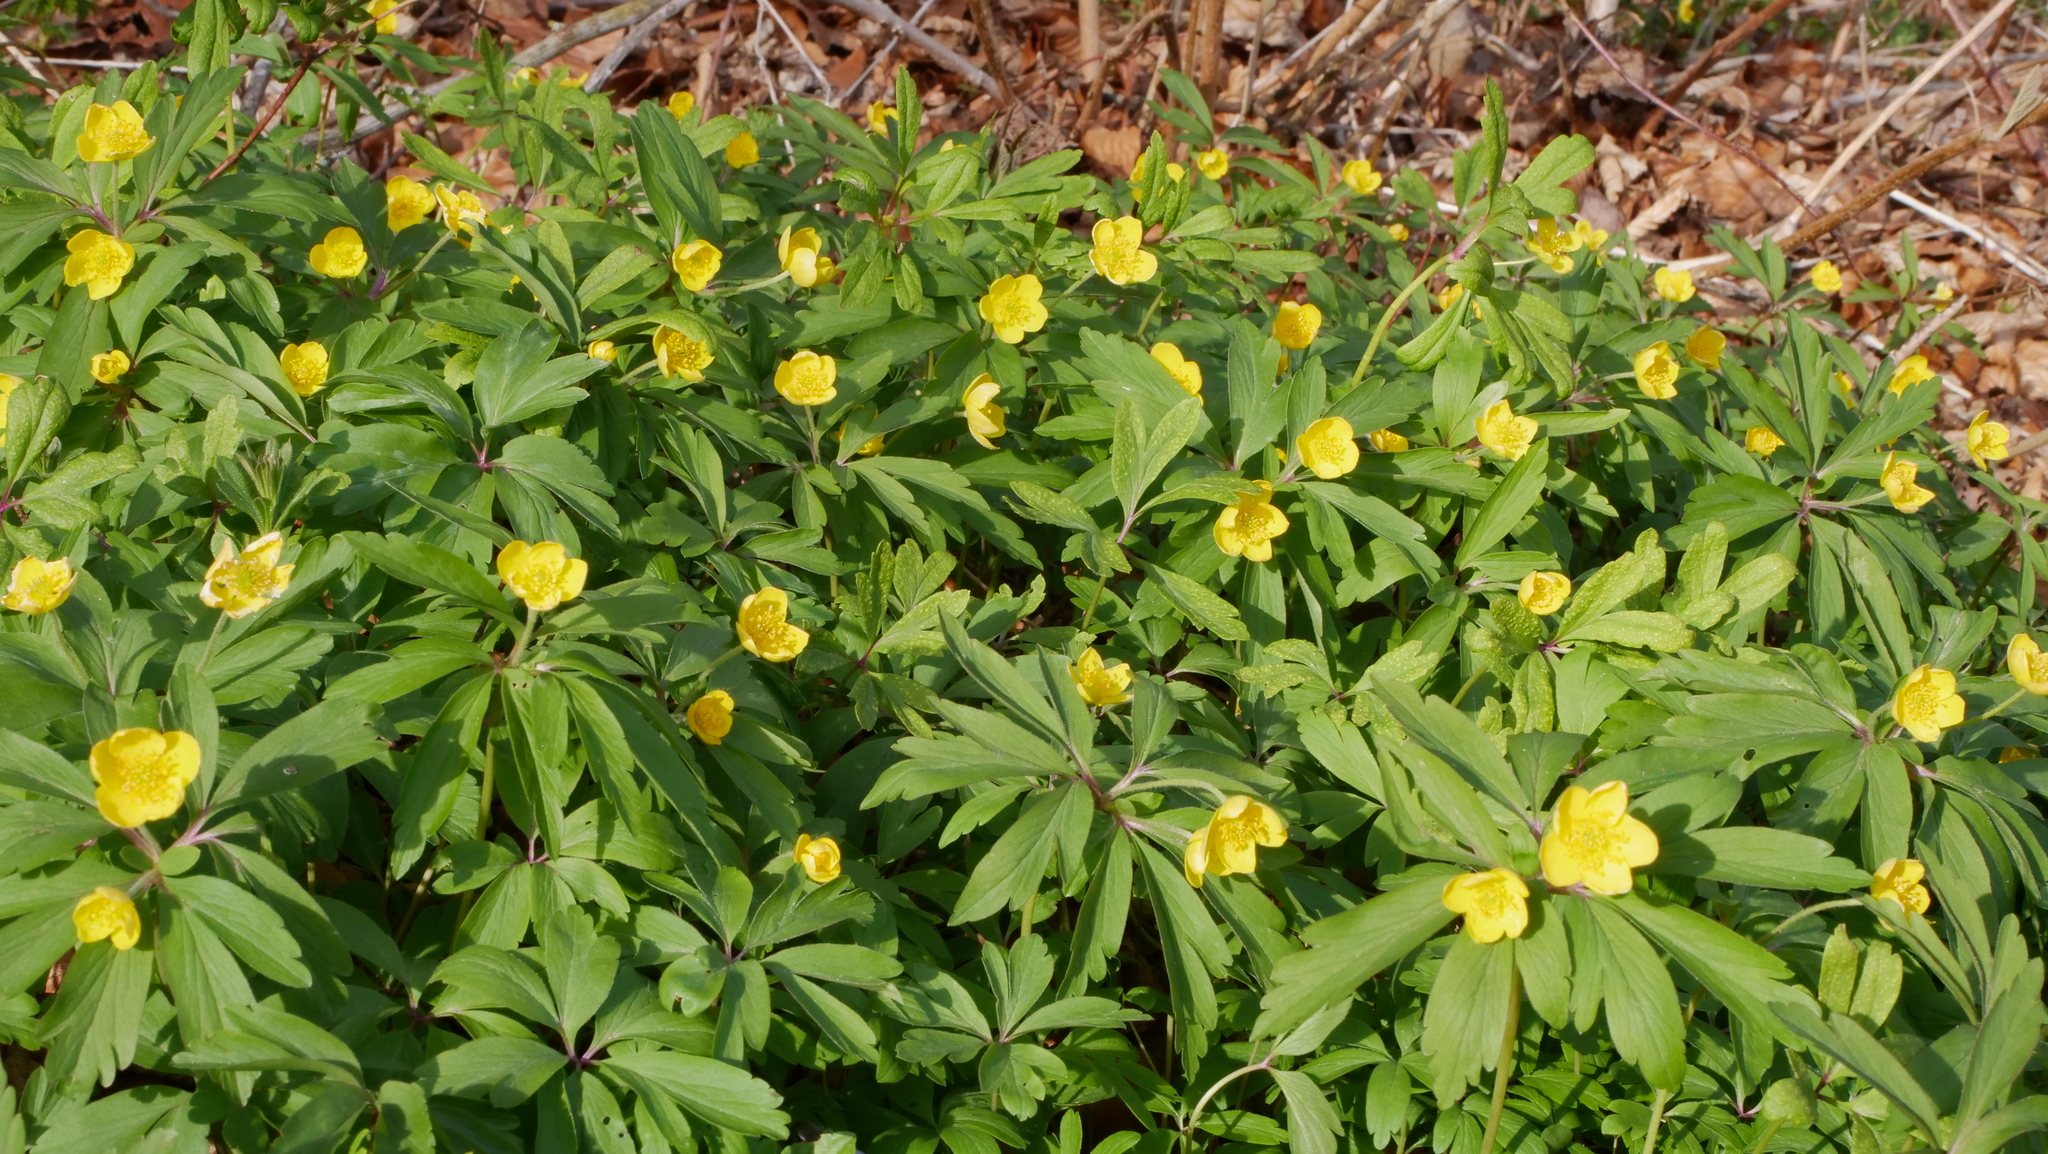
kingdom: Plantae
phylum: Tracheophyta
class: Magnoliopsida
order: Ranunculales
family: Ranunculaceae
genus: Anemone
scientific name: Anemone ranunculoides
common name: Yellow anemone
